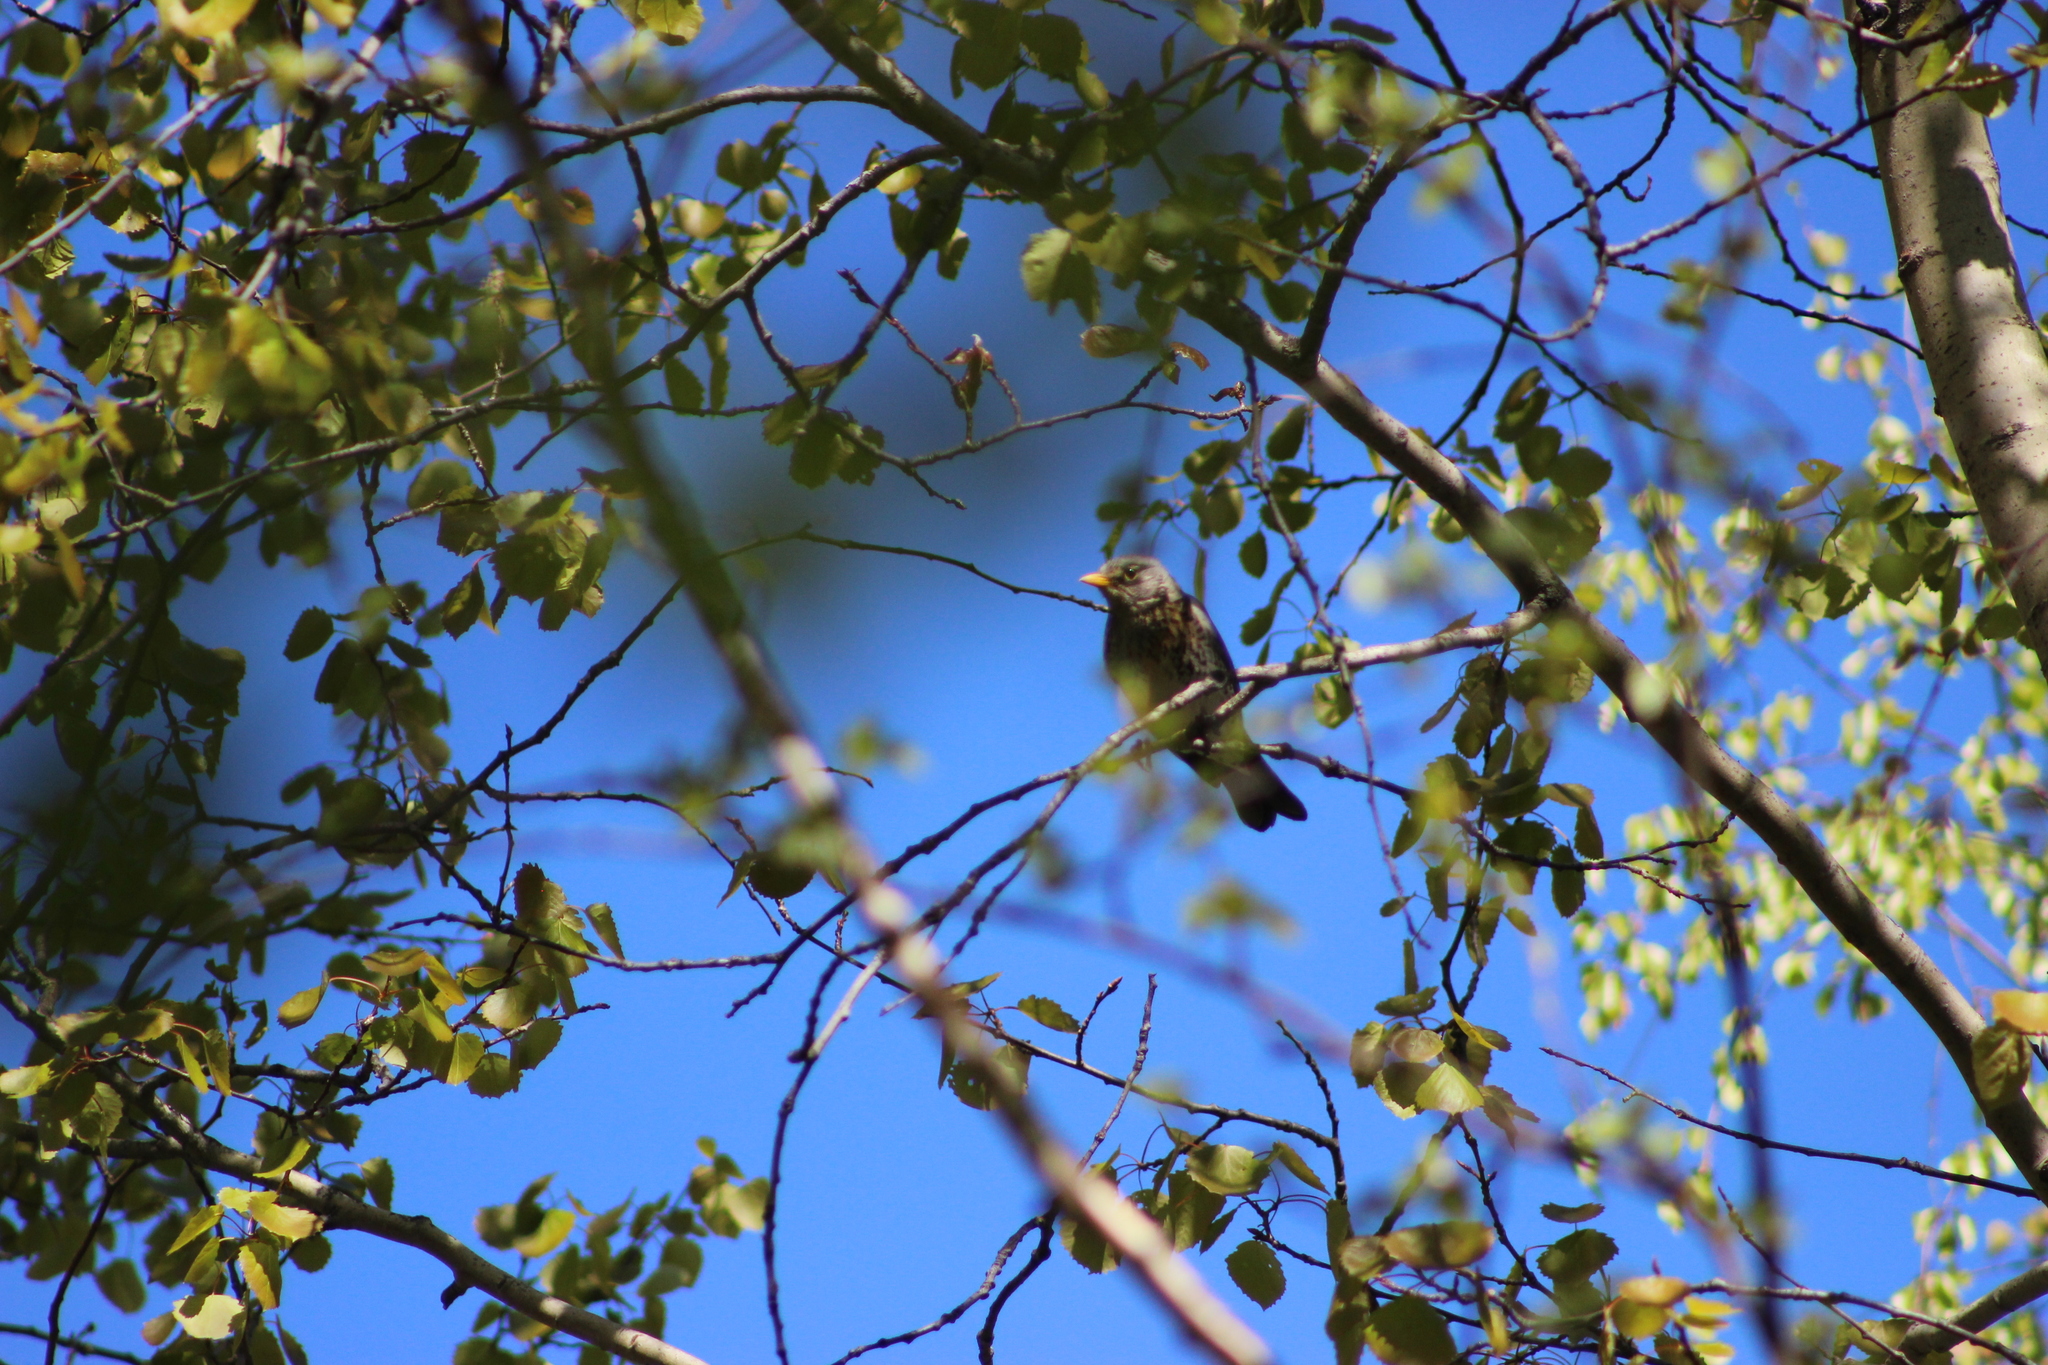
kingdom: Animalia
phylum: Chordata
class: Aves
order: Passeriformes
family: Turdidae
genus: Turdus
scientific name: Turdus pilaris
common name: Fieldfare
